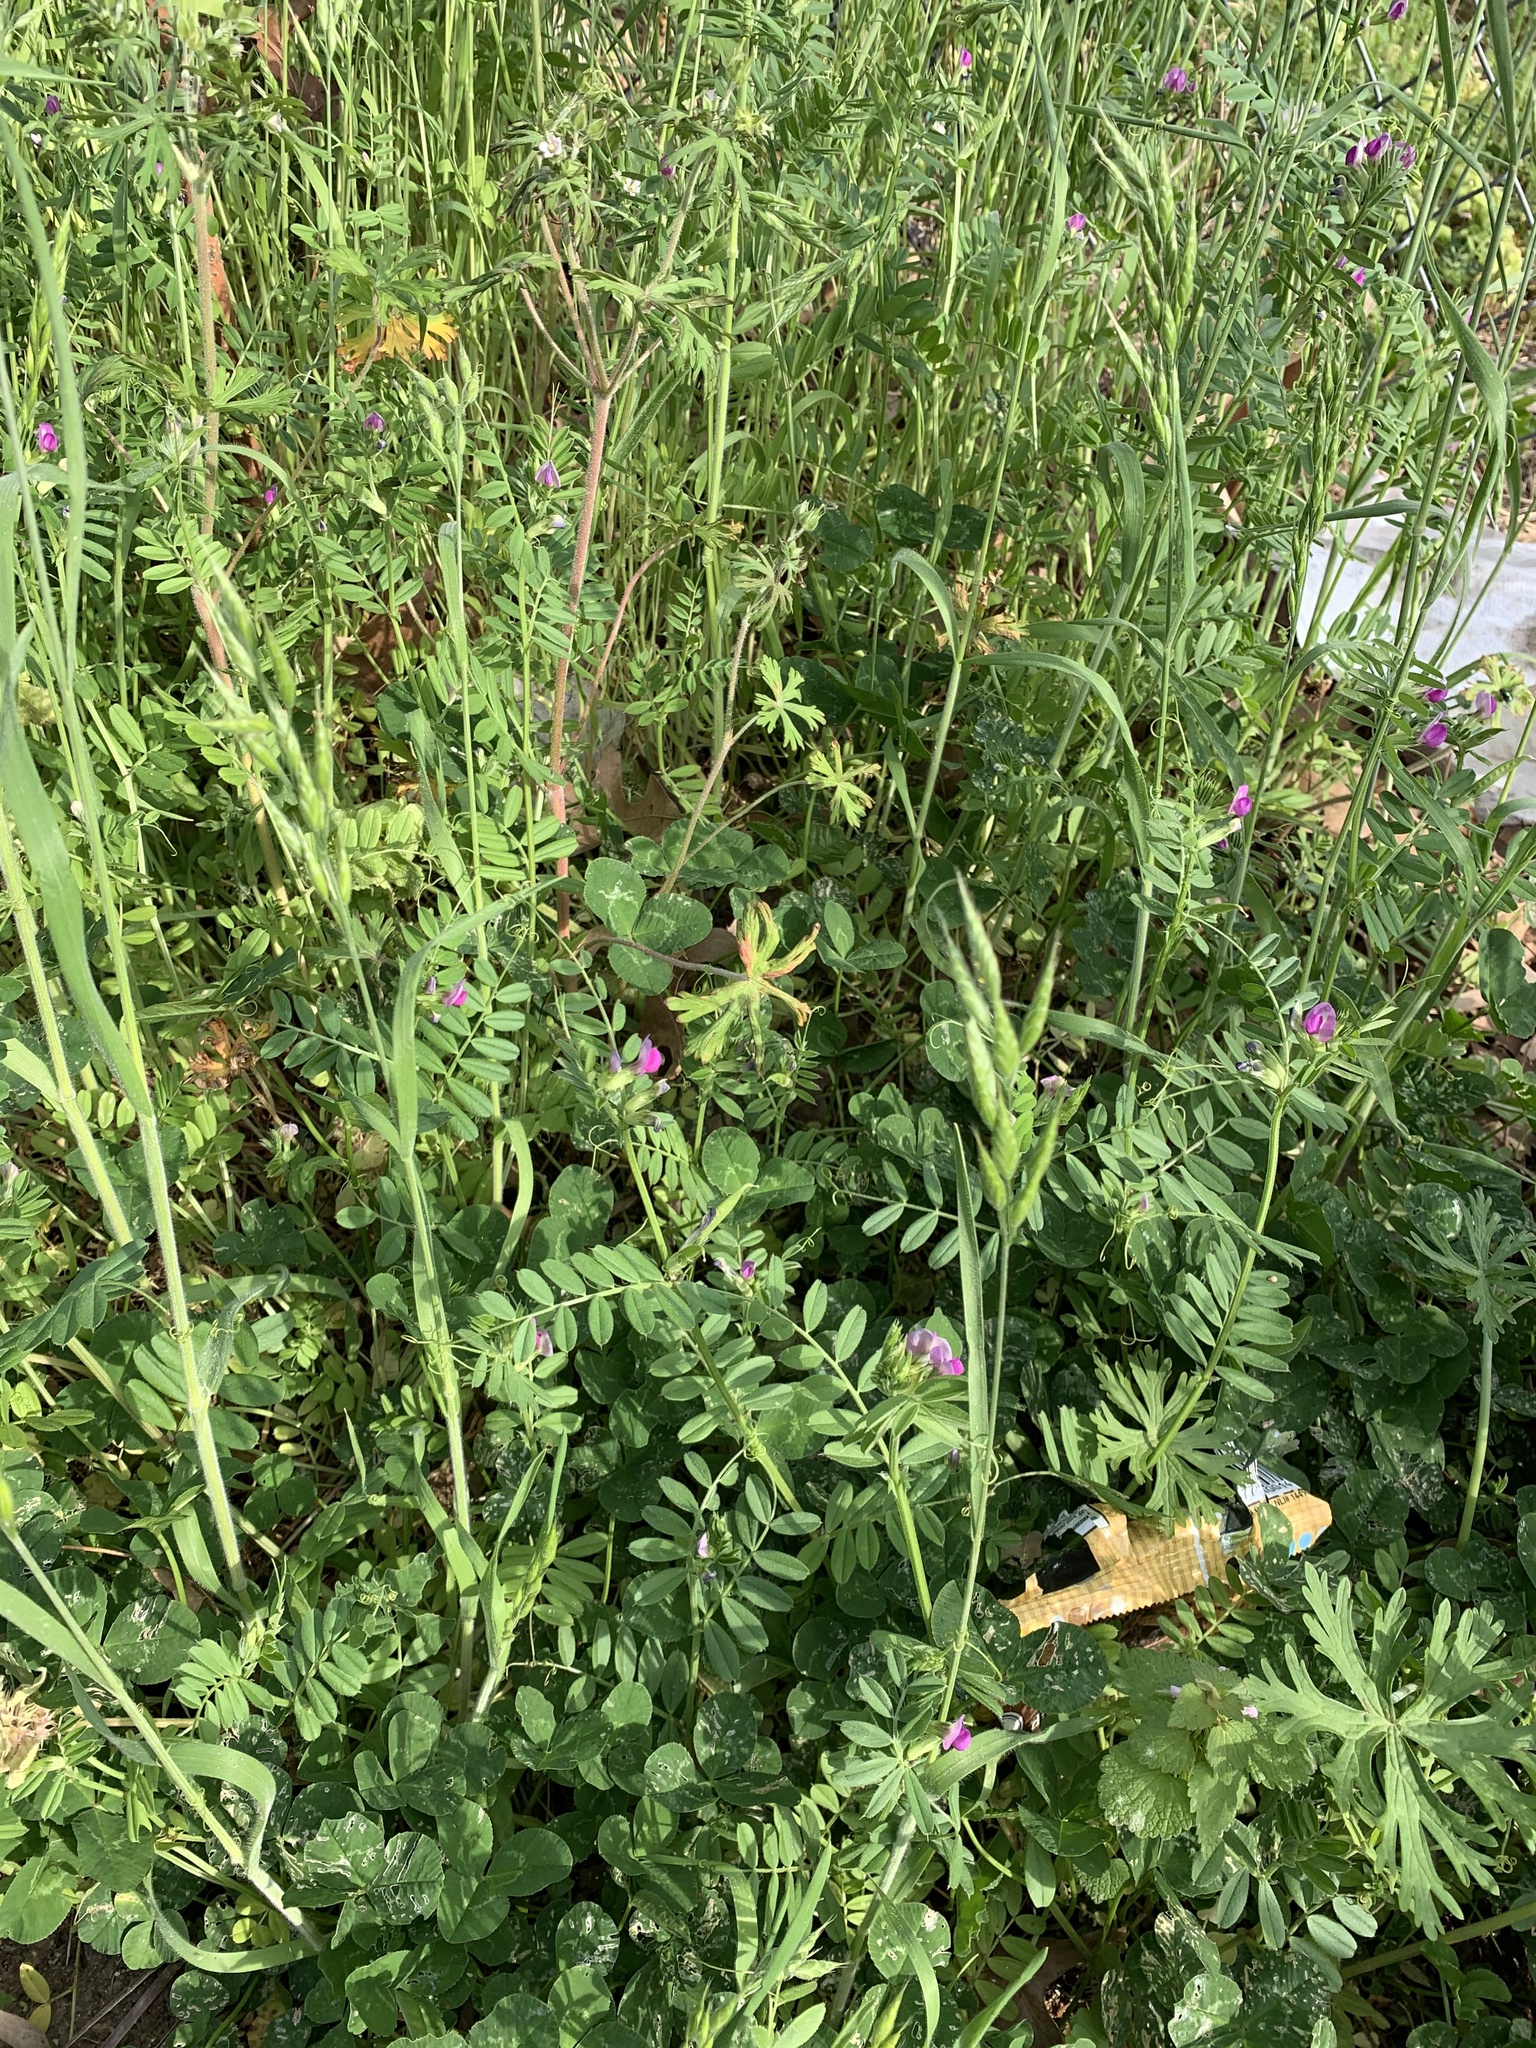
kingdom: Plantae
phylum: Tracheophyta
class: Magnoliopsida
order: Fabales
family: Fabaceae
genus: Vicia
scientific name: Vicia sativa
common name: Garden vetch
